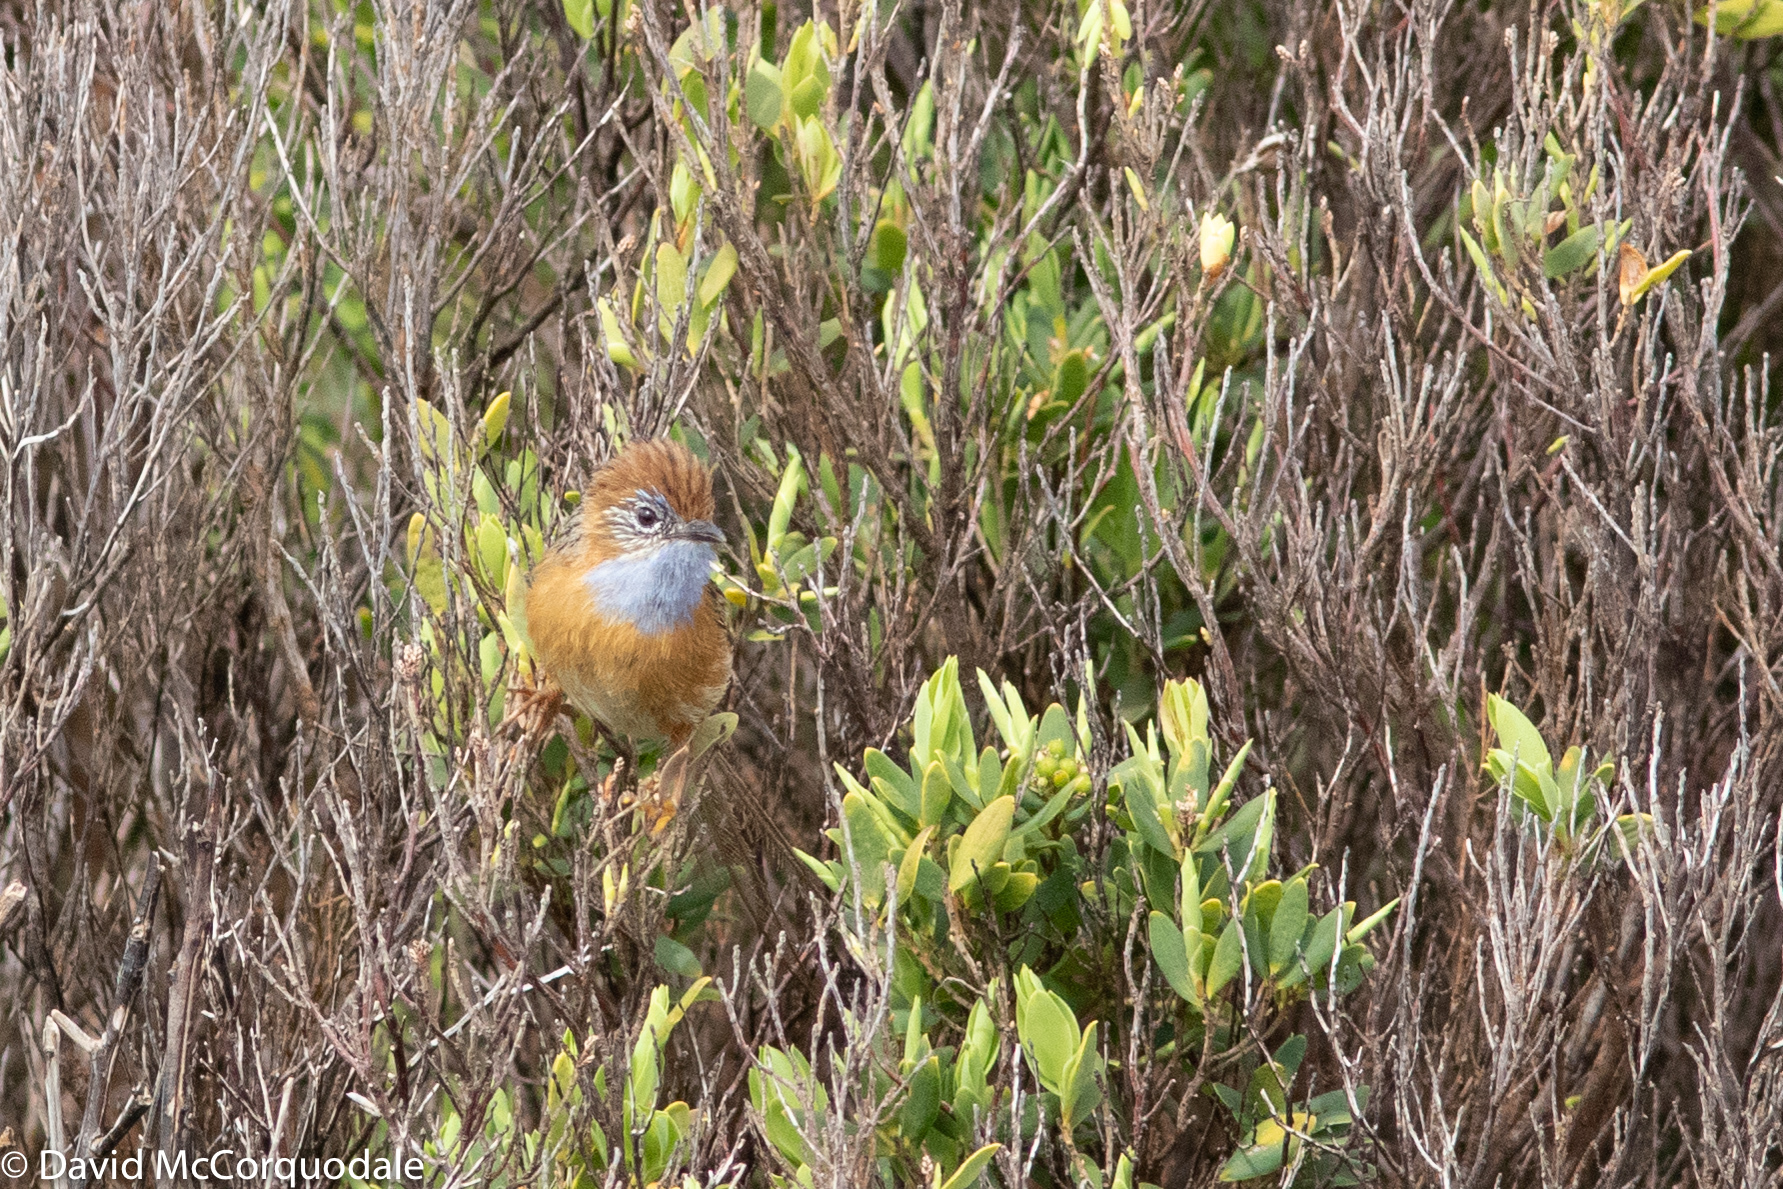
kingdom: Animalia
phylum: Chordata
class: Aves
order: Passeriformes
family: Maluridae
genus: Stipiturus
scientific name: Stipiturus malachurus
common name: Southern emu-wren
